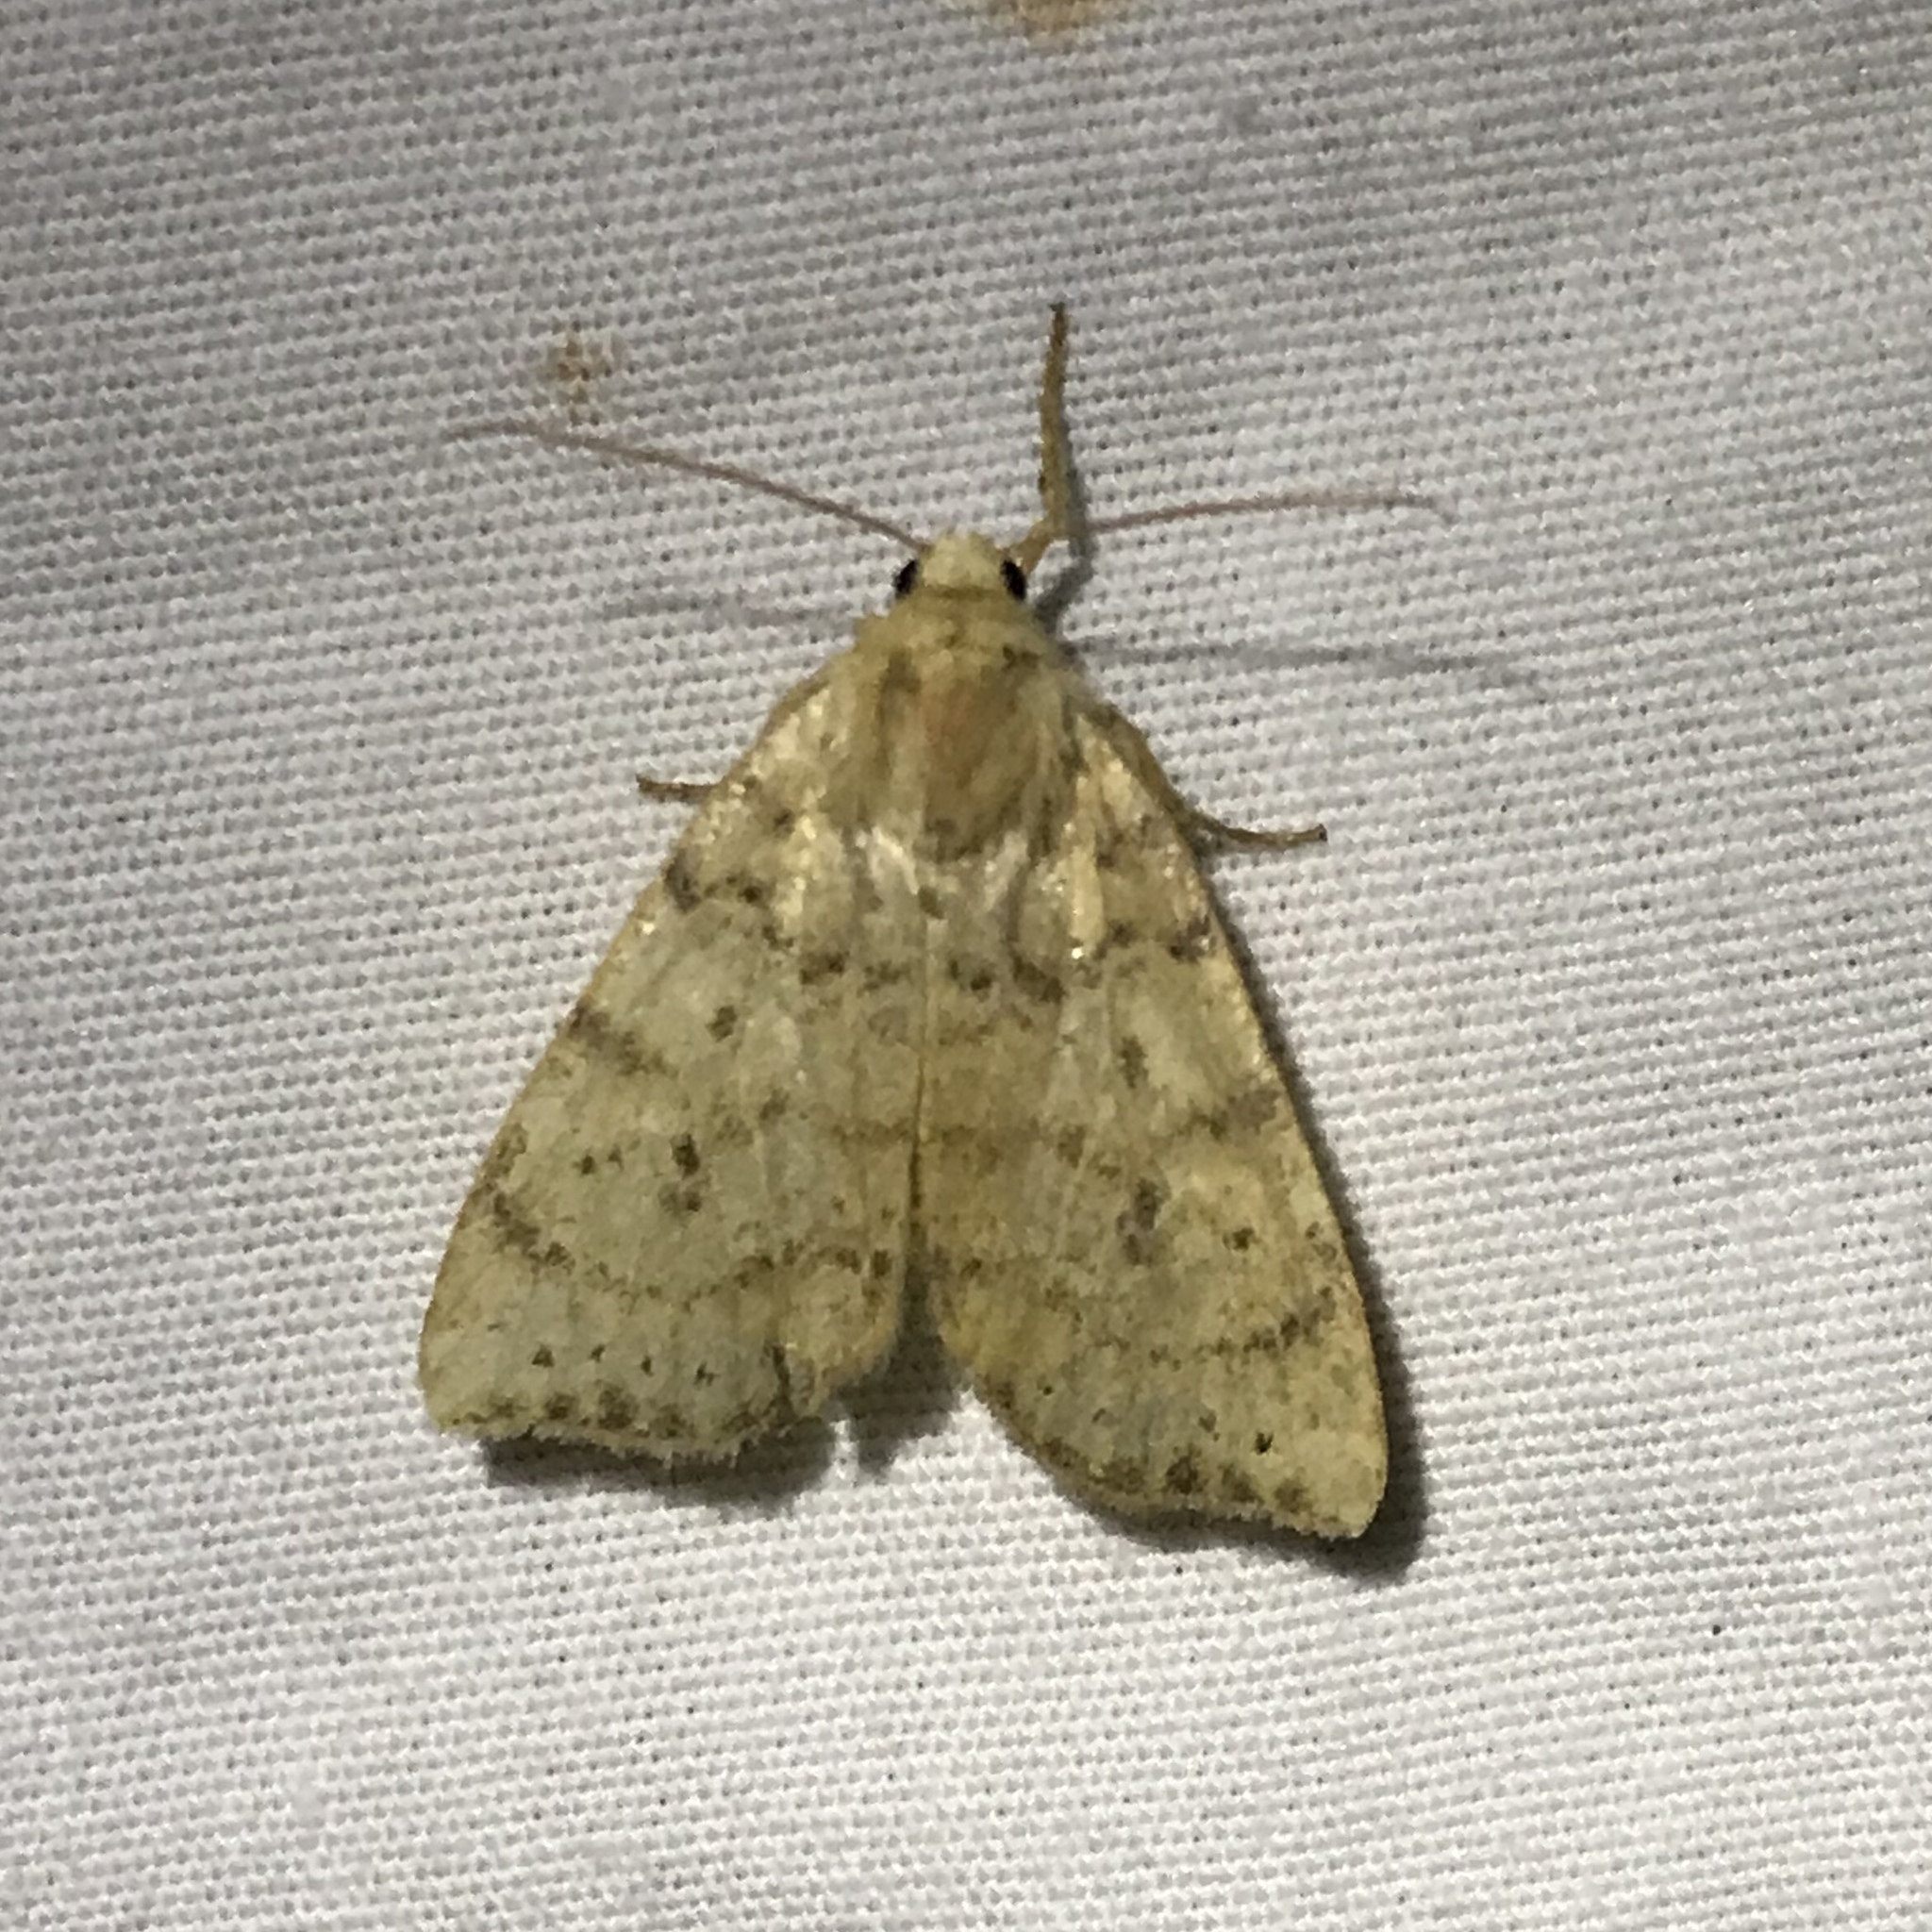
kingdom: Animalia
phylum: Arthropoda
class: Insecta
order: Lepidoptera
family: Noctuidae
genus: Anathix
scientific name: Anathix ralla
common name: Dotted sallow
